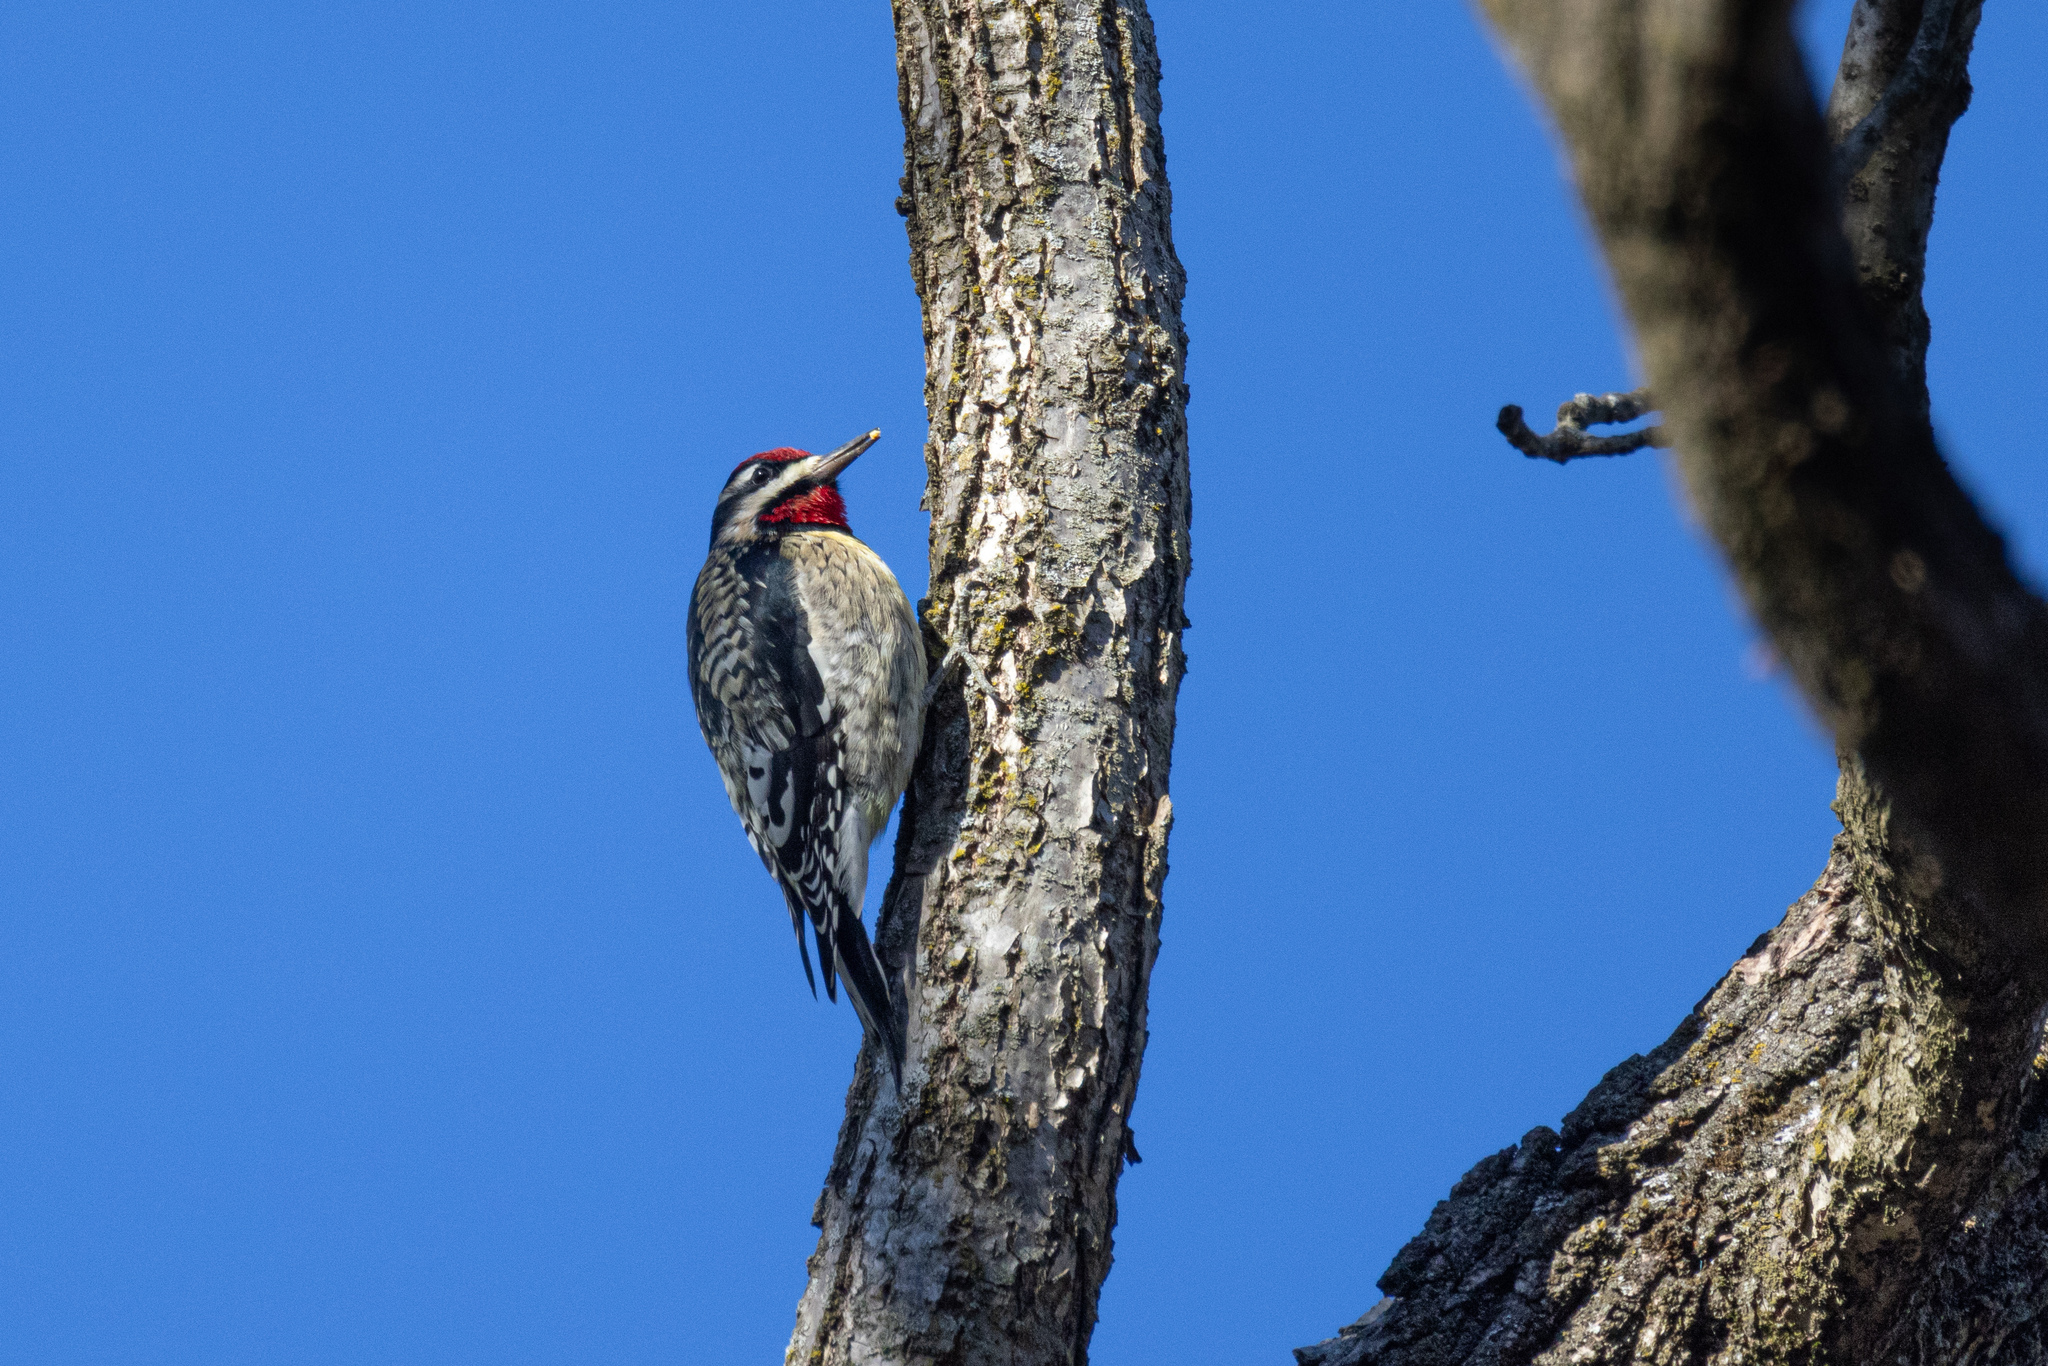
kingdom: Animalia
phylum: Chordata
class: Aves
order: Piciformes
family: Picidae
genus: Sphyrapicus
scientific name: Sphyrapicus varius
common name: Yellow-bellied sapsucker
